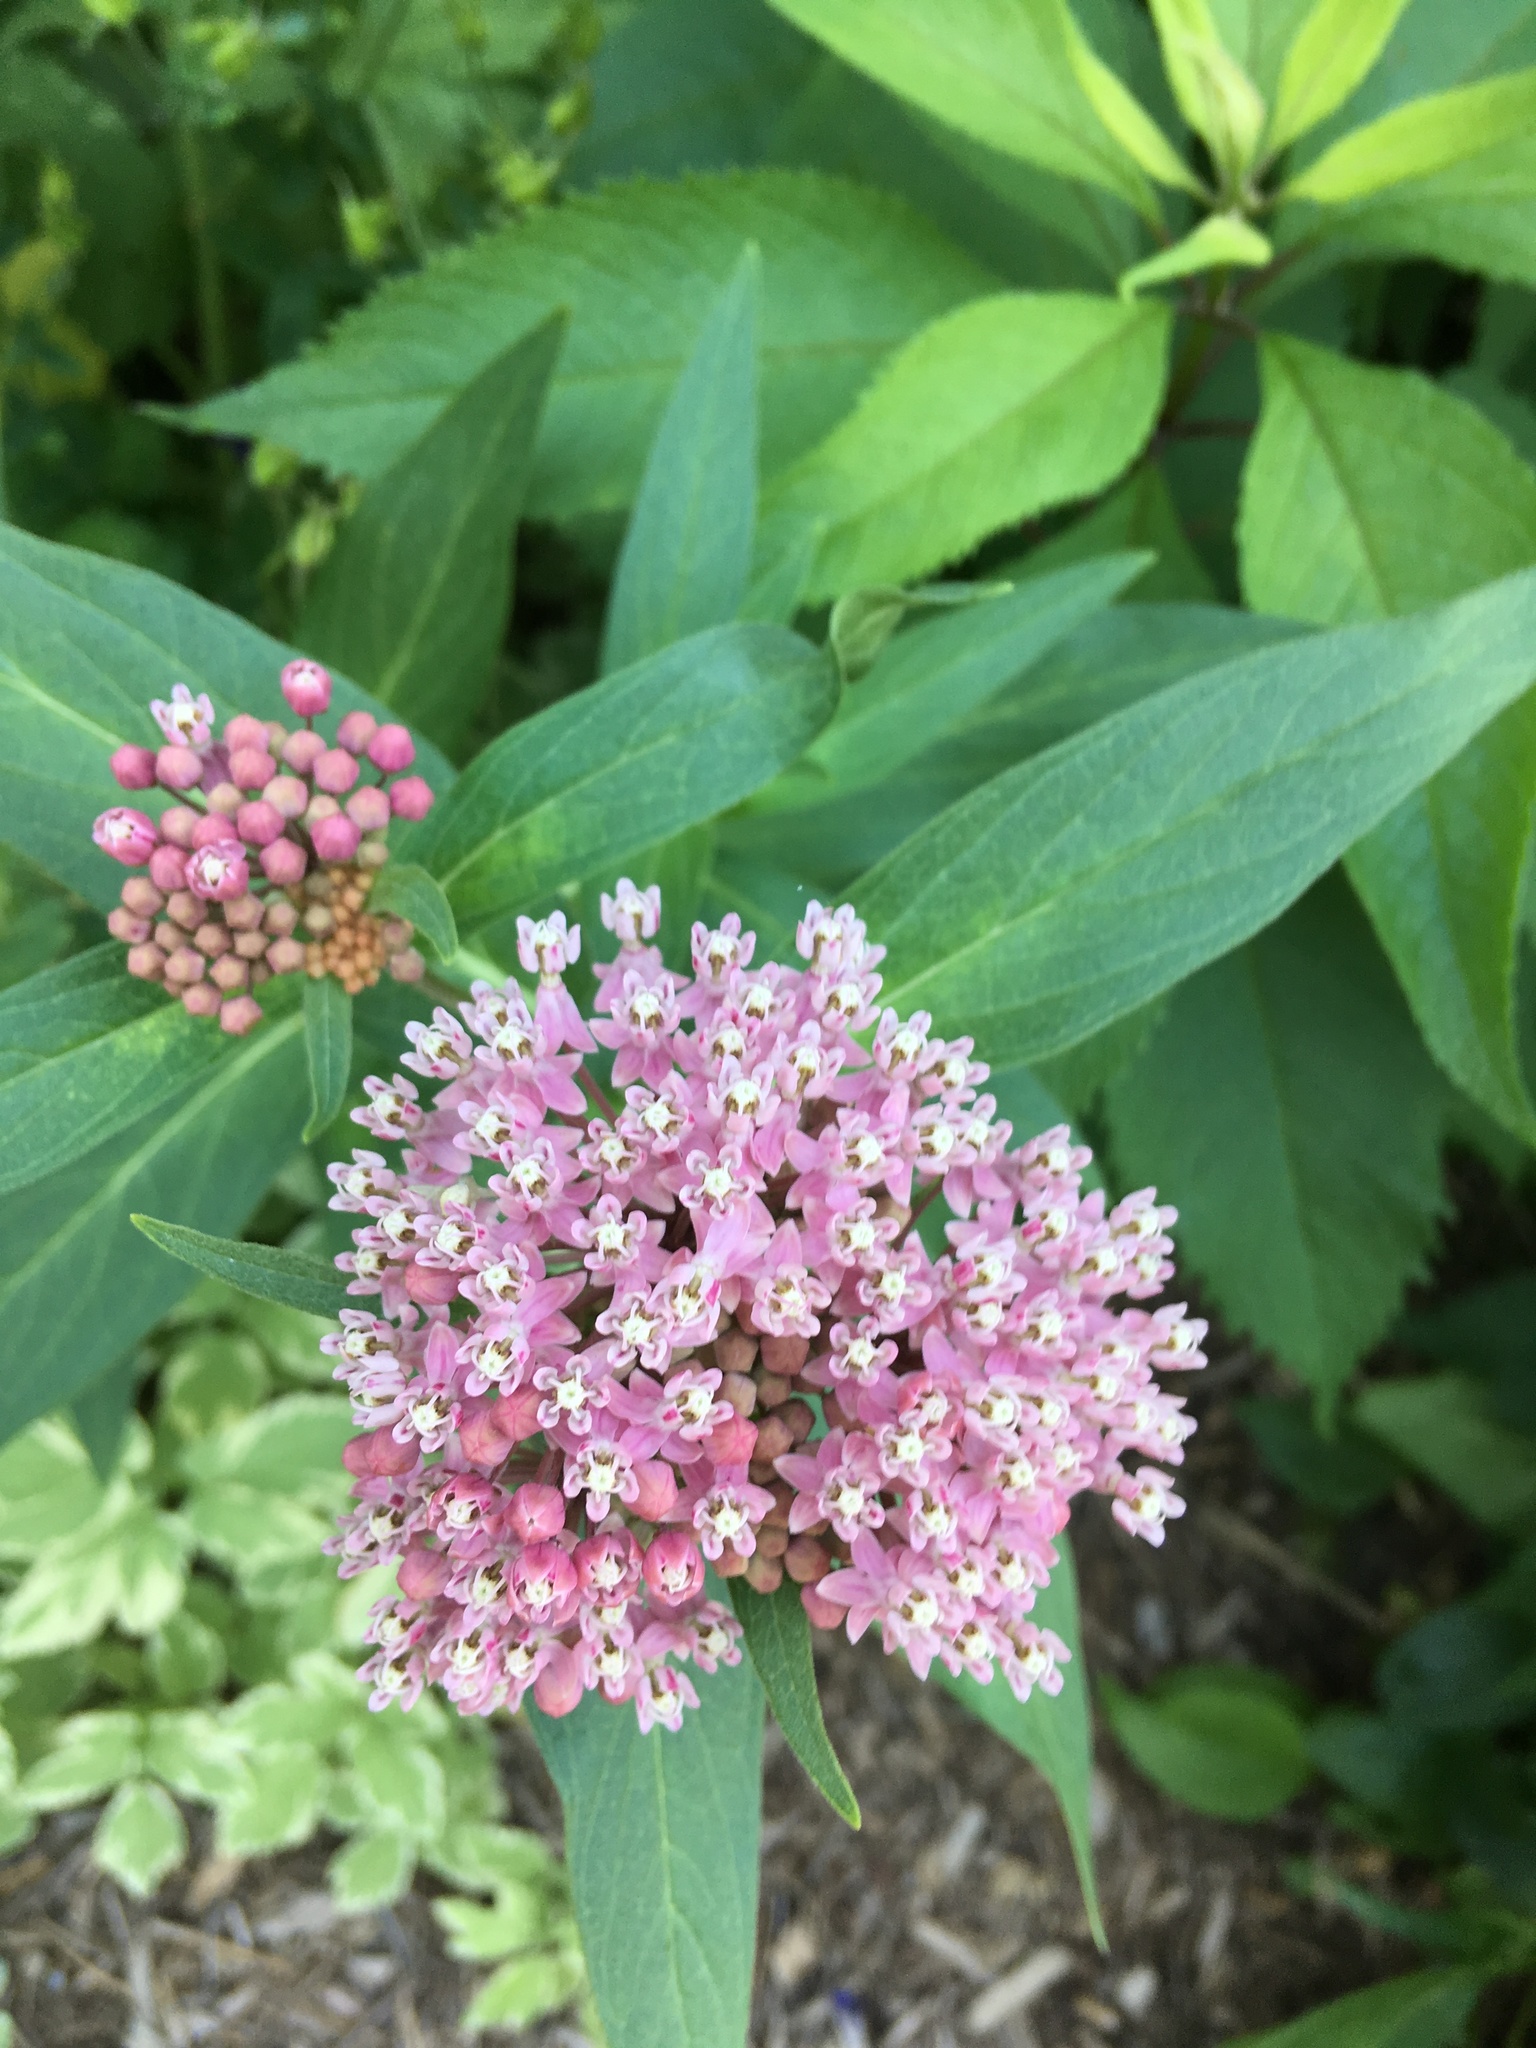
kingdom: Plantae
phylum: Tracheophyta
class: Magnoliopsida
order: Gentianales
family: Apocynaceae
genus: Asclepias
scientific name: Asclepias incarnata
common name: Swamp milkweed
